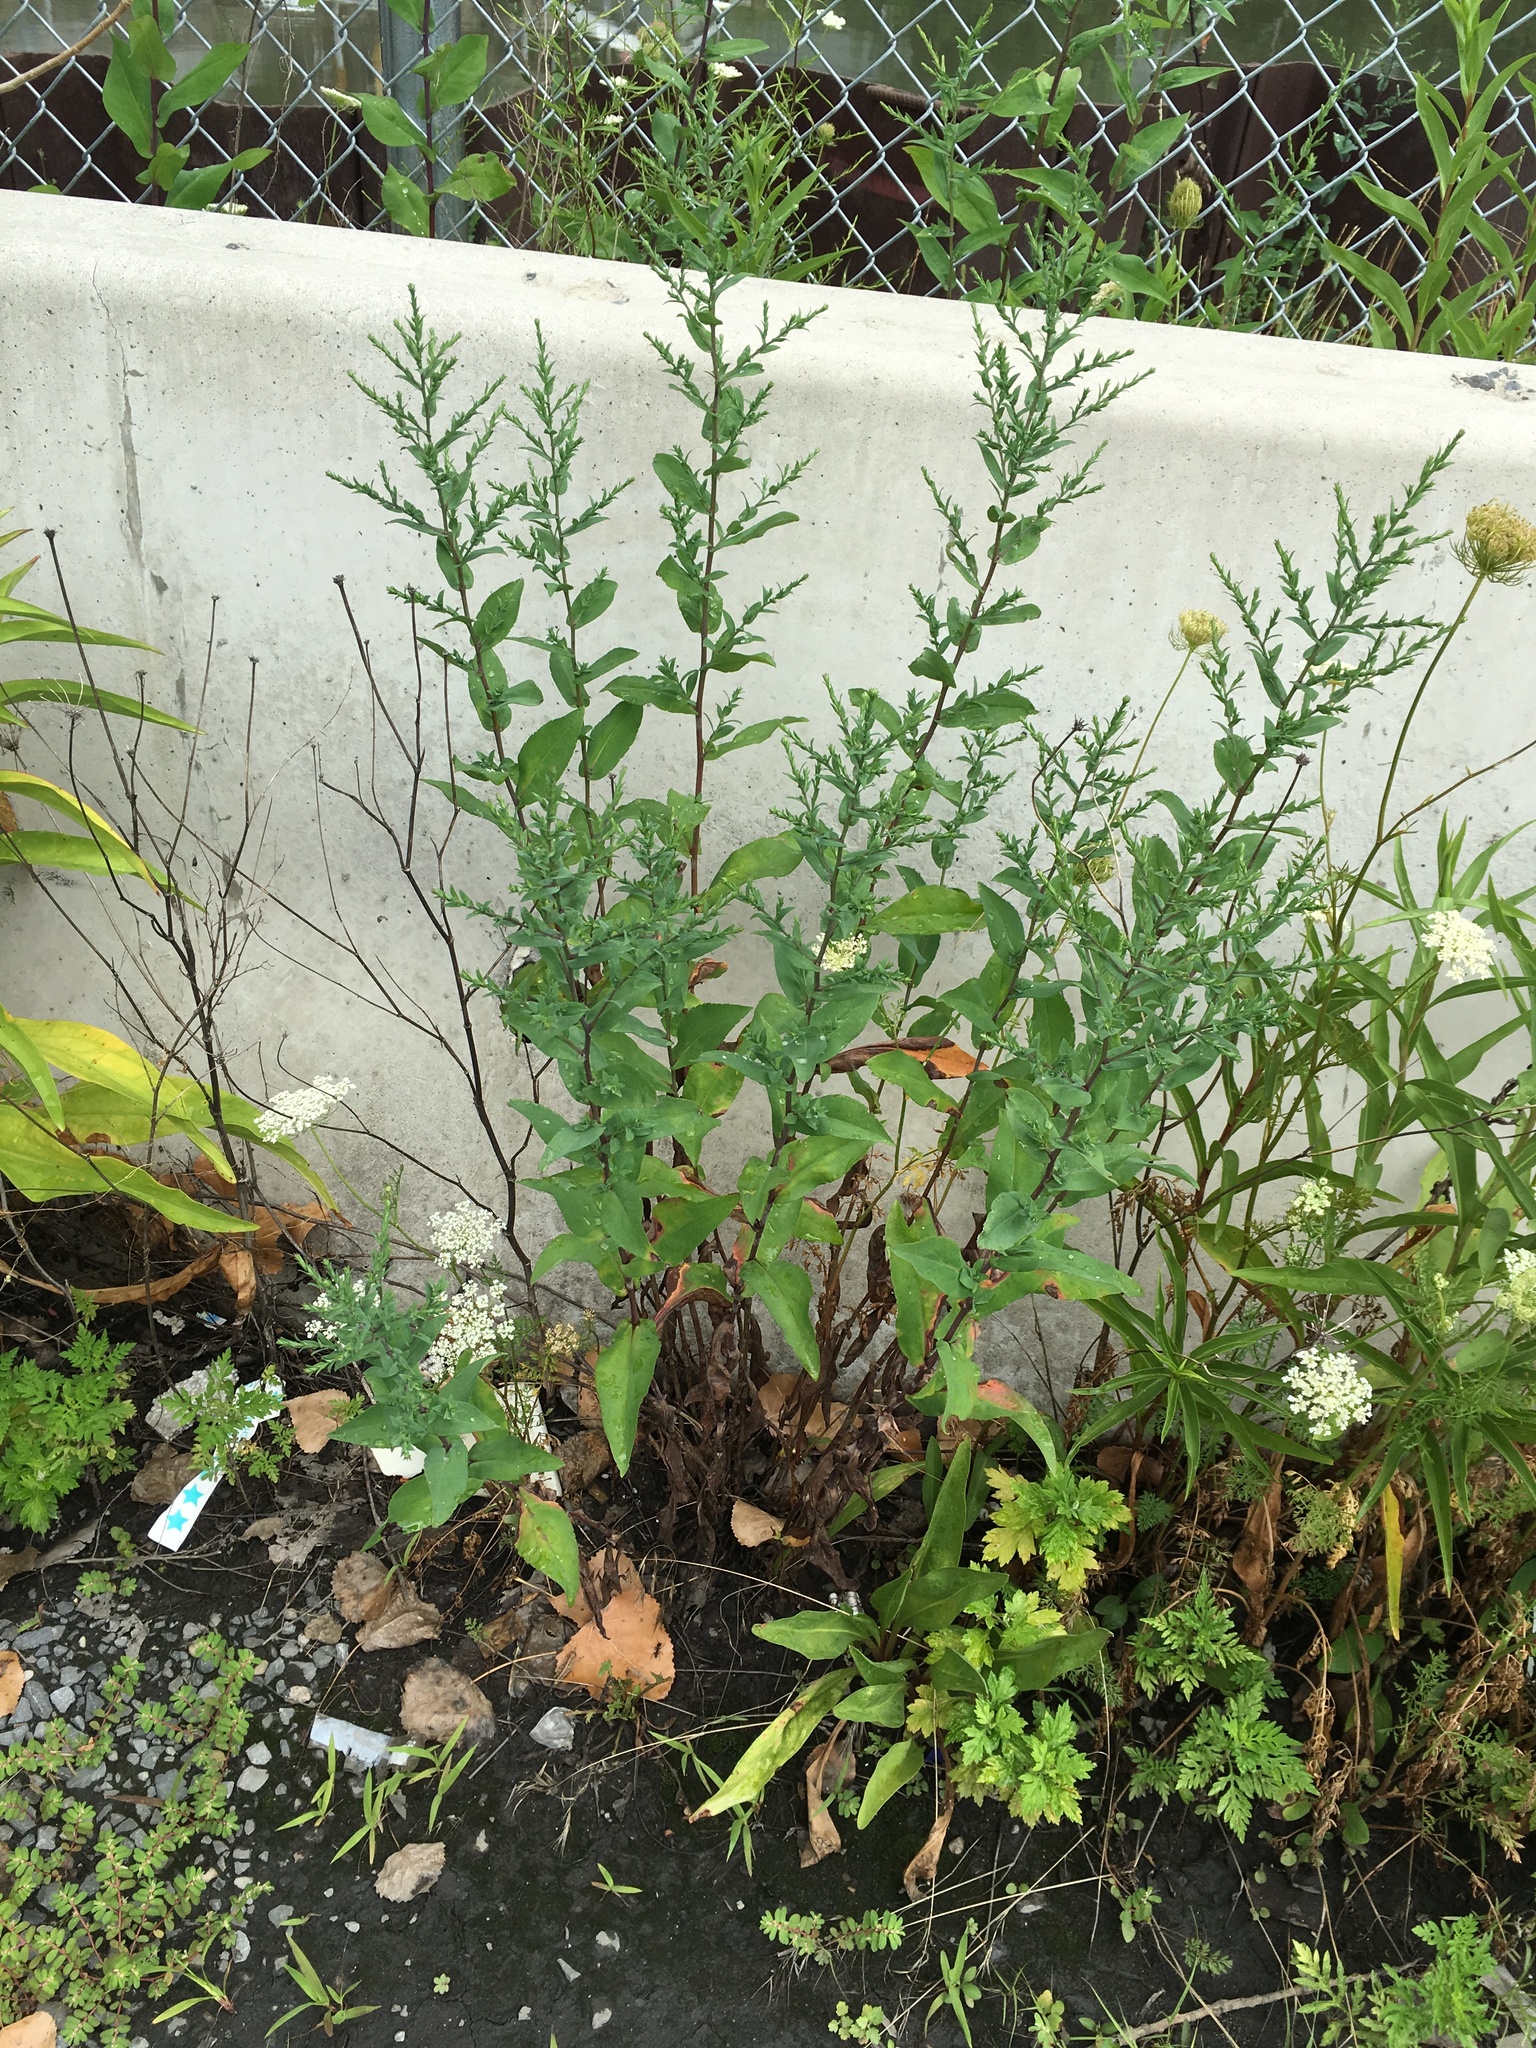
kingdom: Plantae
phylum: Tracheophyta
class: Magnoliopsida
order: Asterales
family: Asteraceae
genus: Symphyotrichum
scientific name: Symphyotrichum laeve
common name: Glaucous aster
